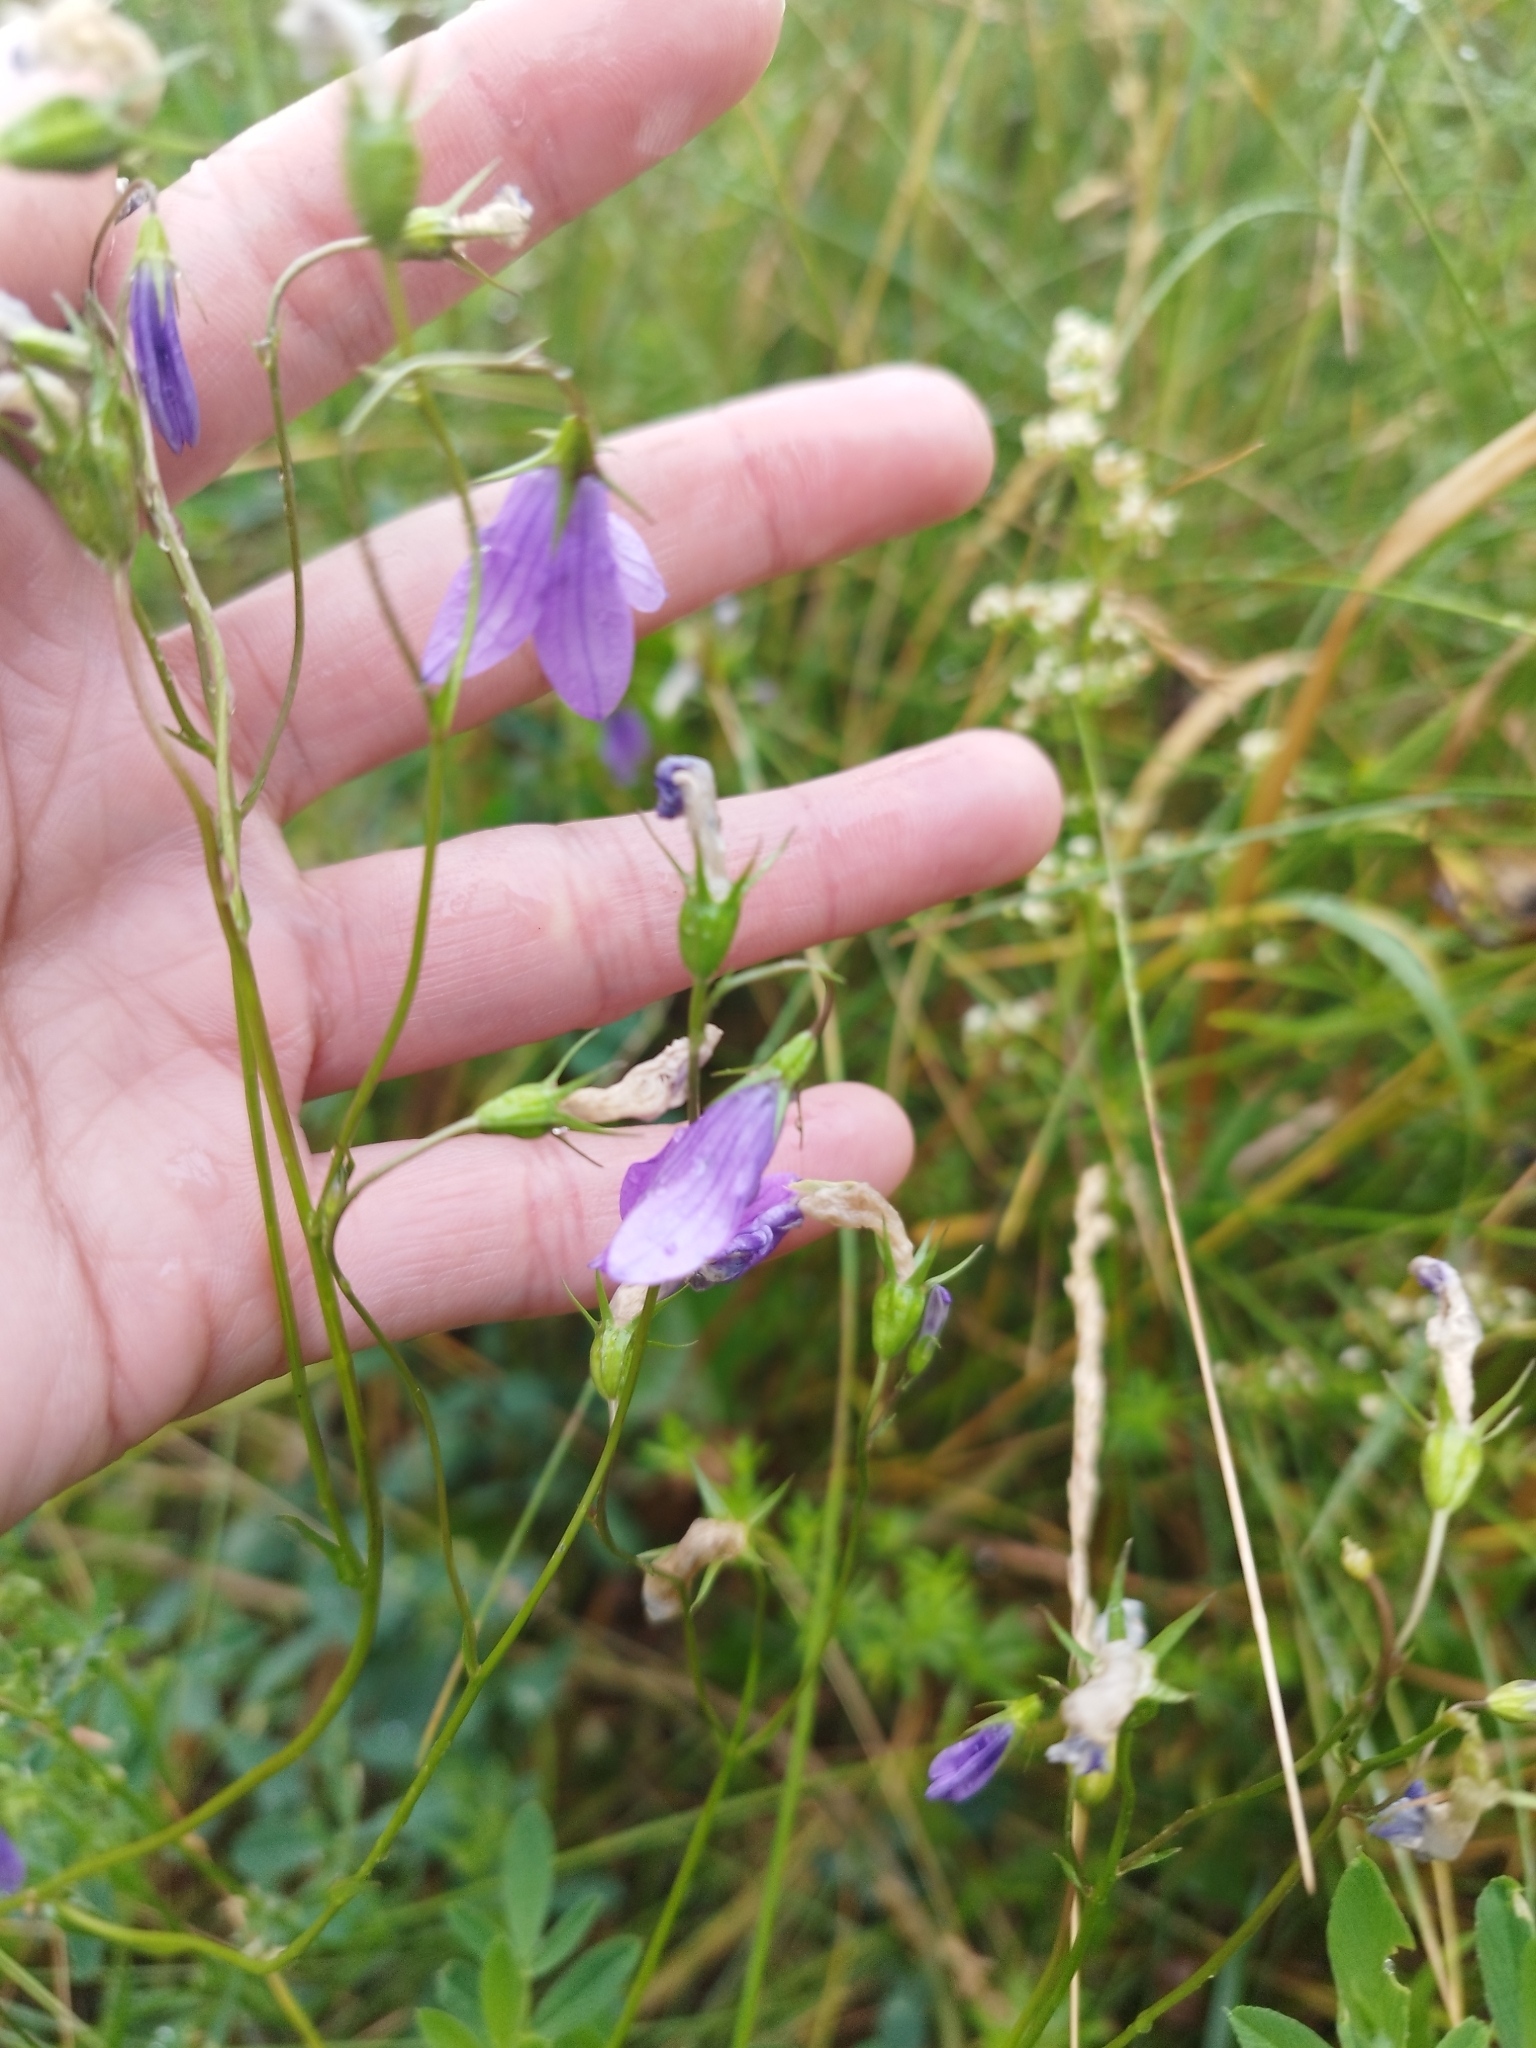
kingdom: Plantae
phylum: Tracheophyta
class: Magnoliopsida
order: Asterales
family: Campanulaceae
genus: Campanula
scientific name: Campanula patula
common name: Spreading bellflower
